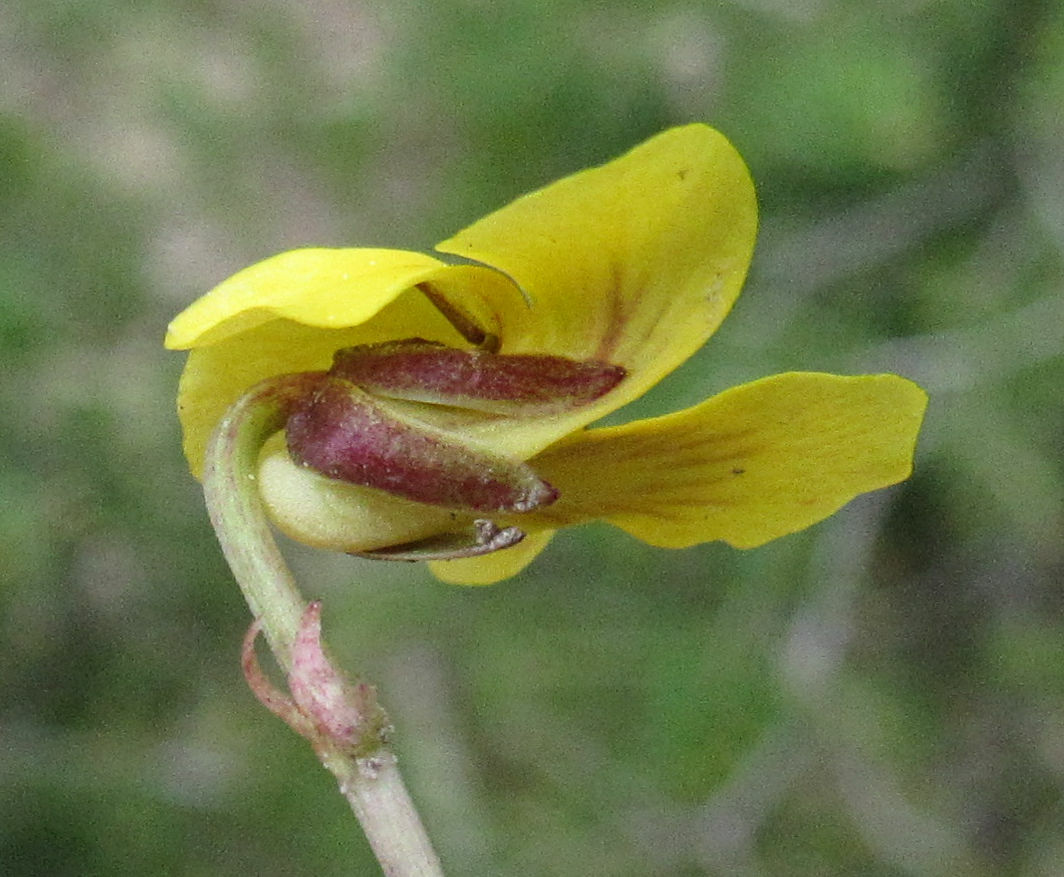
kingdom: Plantae
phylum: Tracheophyta
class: Magnoliopsida
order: Malpighiales
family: Violaceae
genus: Viola
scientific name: Viola orbiculata
